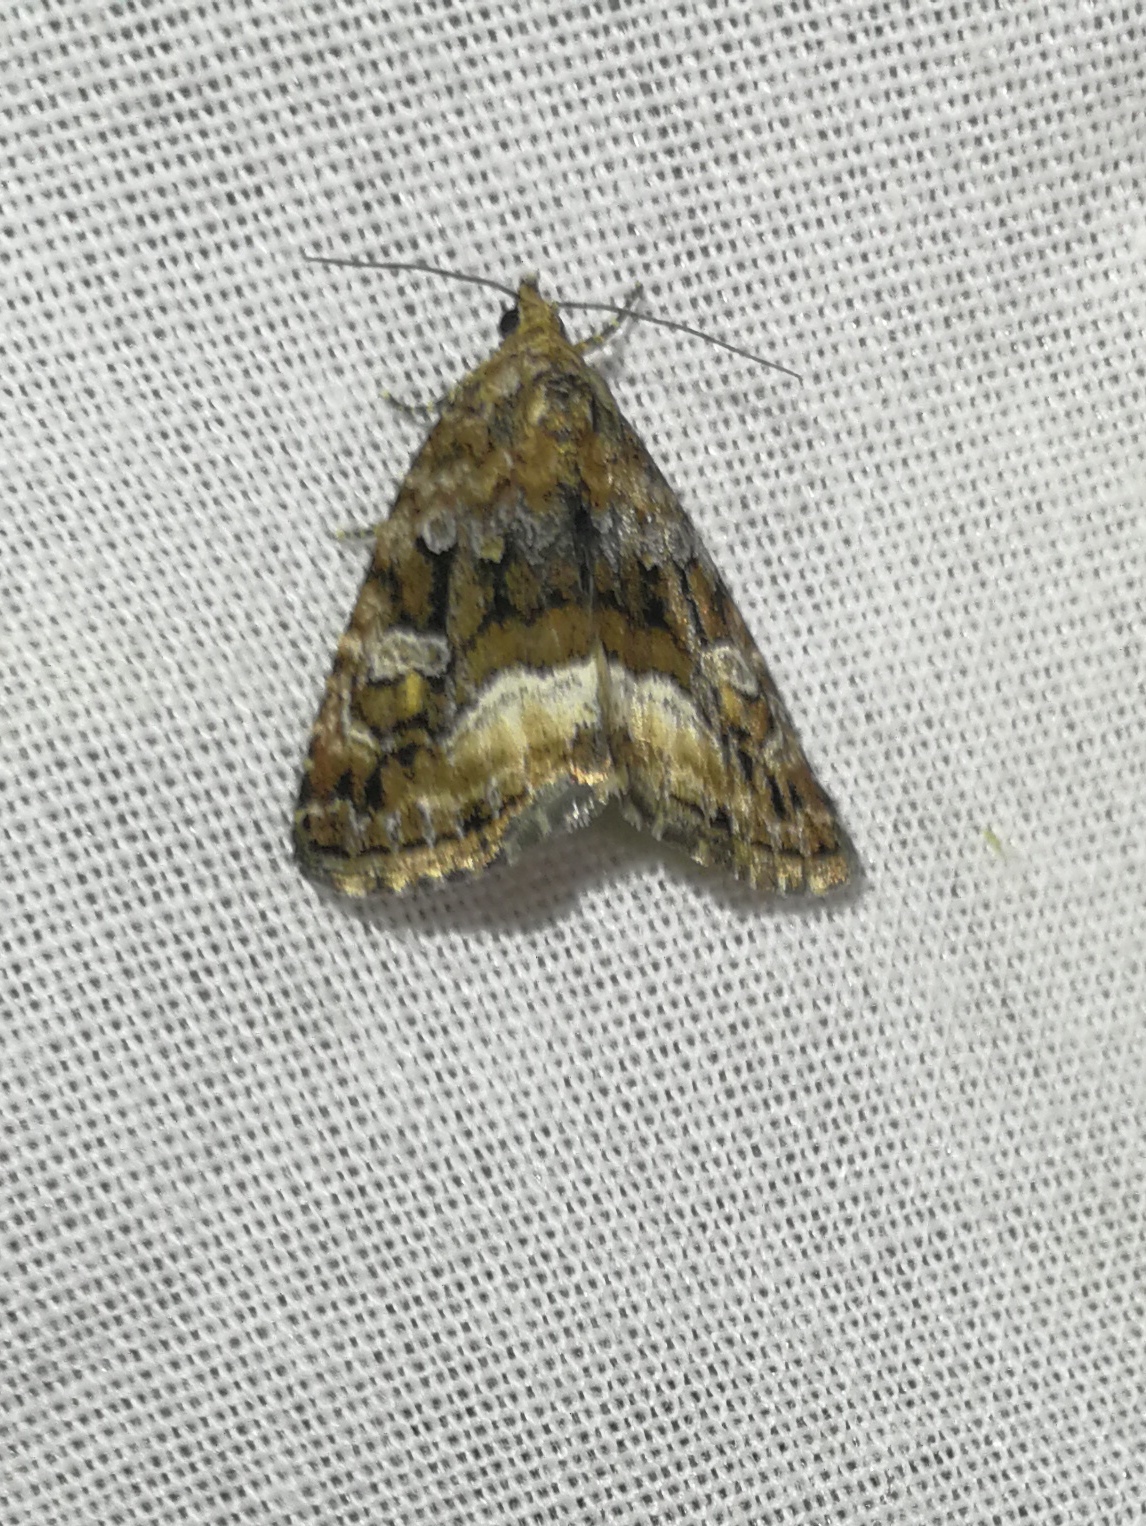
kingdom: Animalia
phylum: Arthropoda
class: Insecta
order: Lepidoptera
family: Noctuidae
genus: Deltote
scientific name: Deltote pygarga
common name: Marbled white spot
